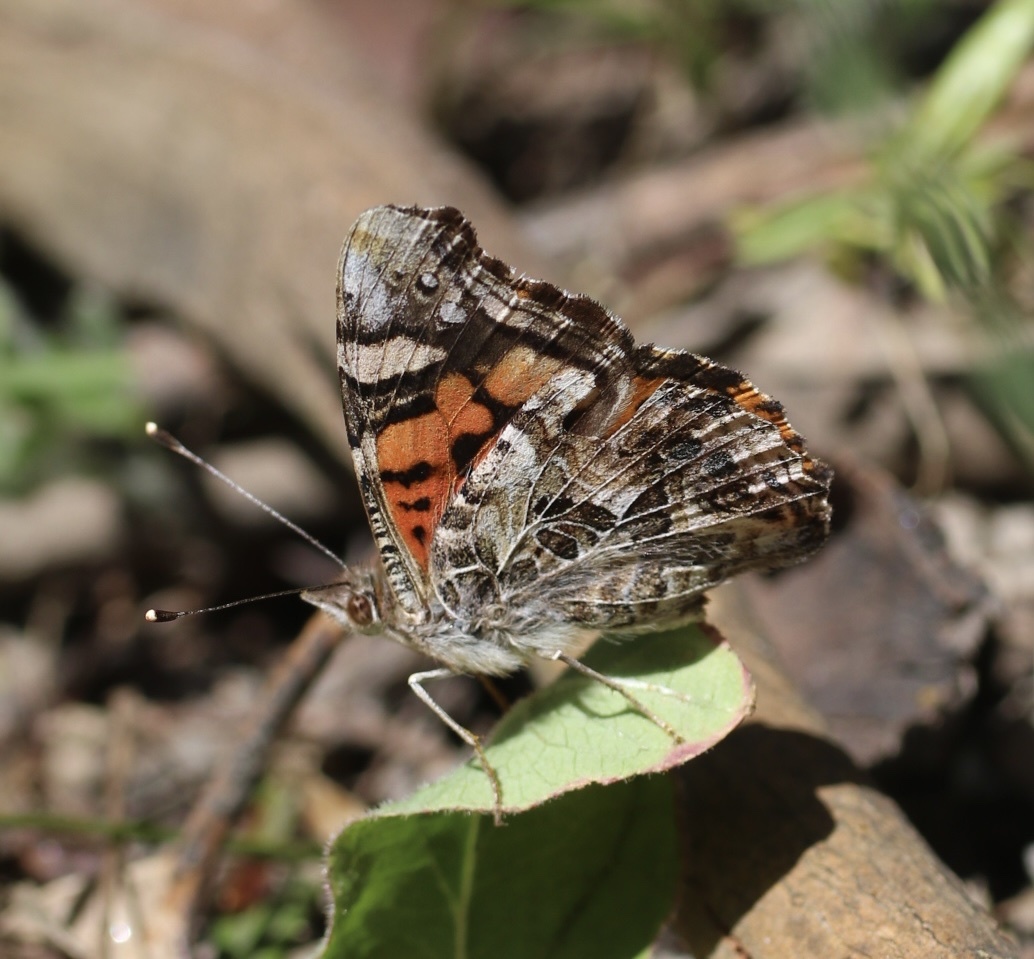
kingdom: Animalia
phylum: Arthropoda
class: Insecta
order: Lepidoptera
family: Nymphalidae
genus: Vanessa
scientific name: Vanessa annabella
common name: West coast lady
